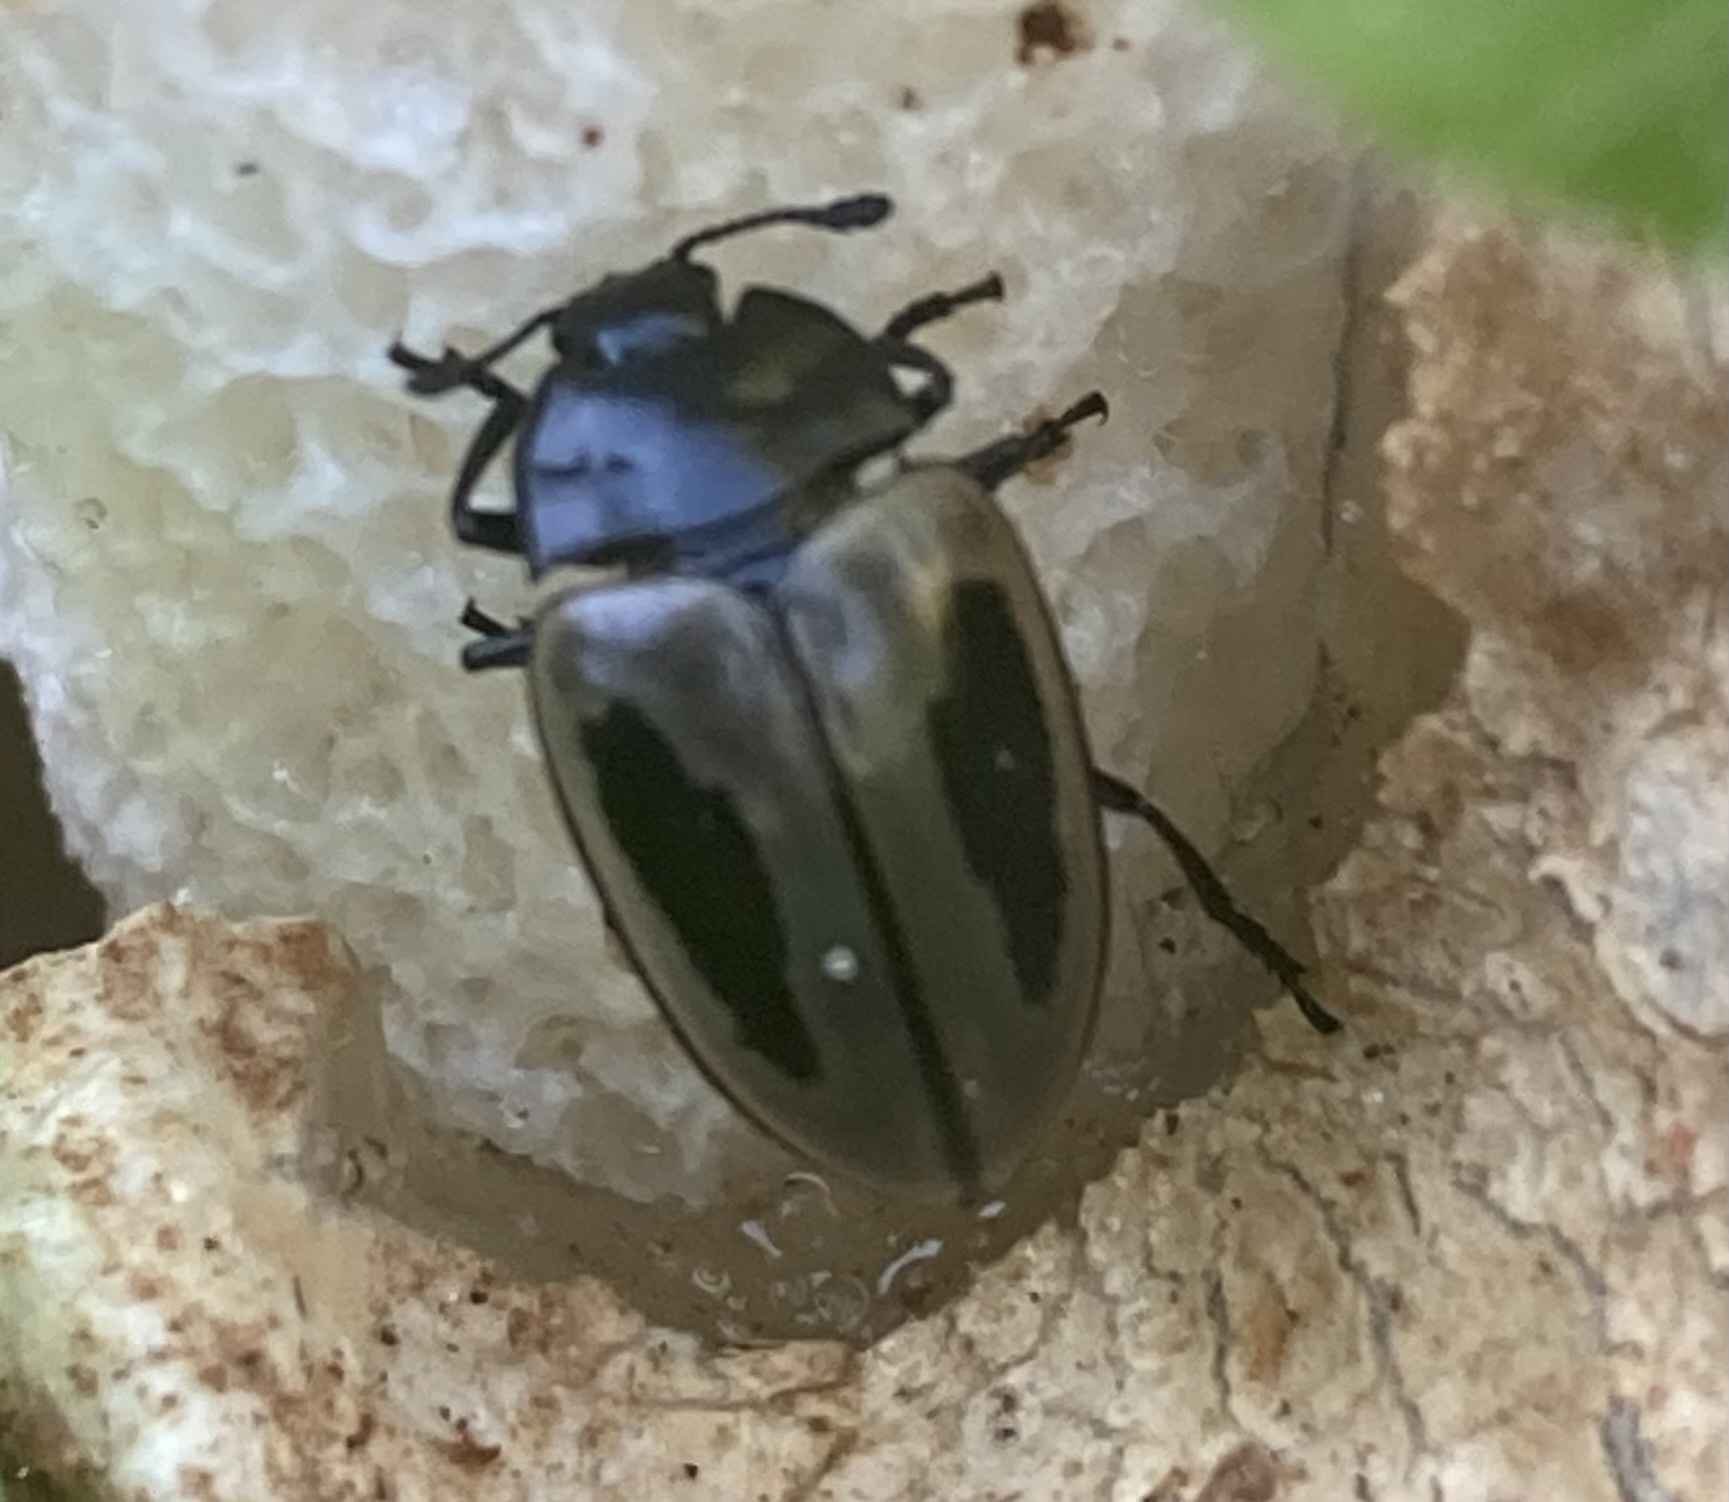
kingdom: Animalia
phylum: Arthropoda
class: Insecta
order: Coleoptera
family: Erotylidae
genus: Iphiclus
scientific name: Iphiclus
